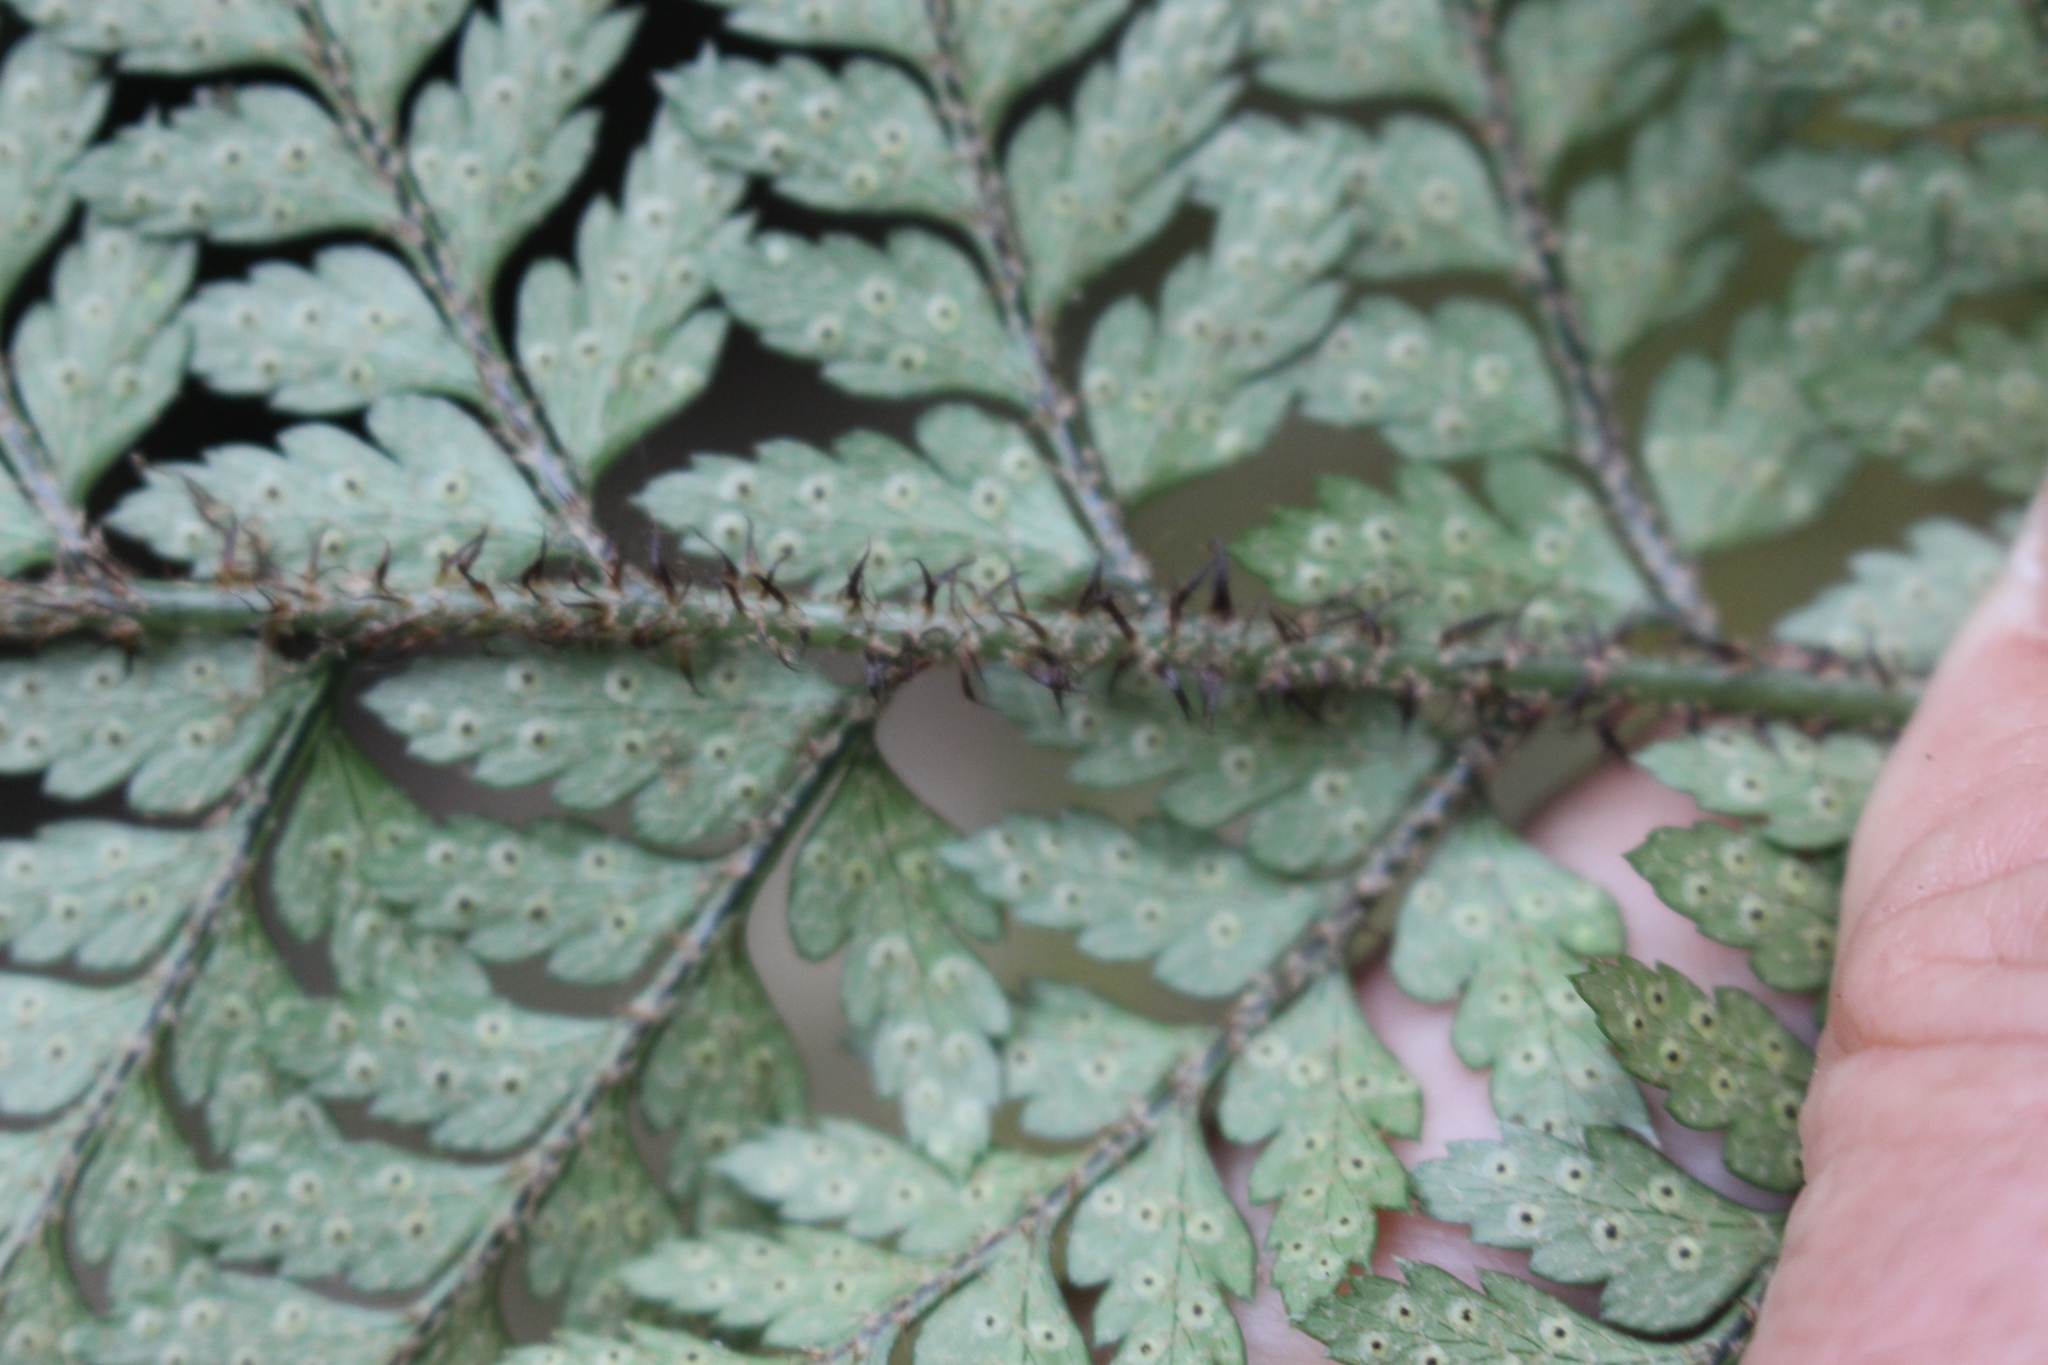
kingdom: Plantae
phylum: Tracheophyta
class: Polypodiopsida
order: Polypodiales
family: Dryopteridaceae
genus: Polystichum
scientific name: Polystichum neozelandicum
